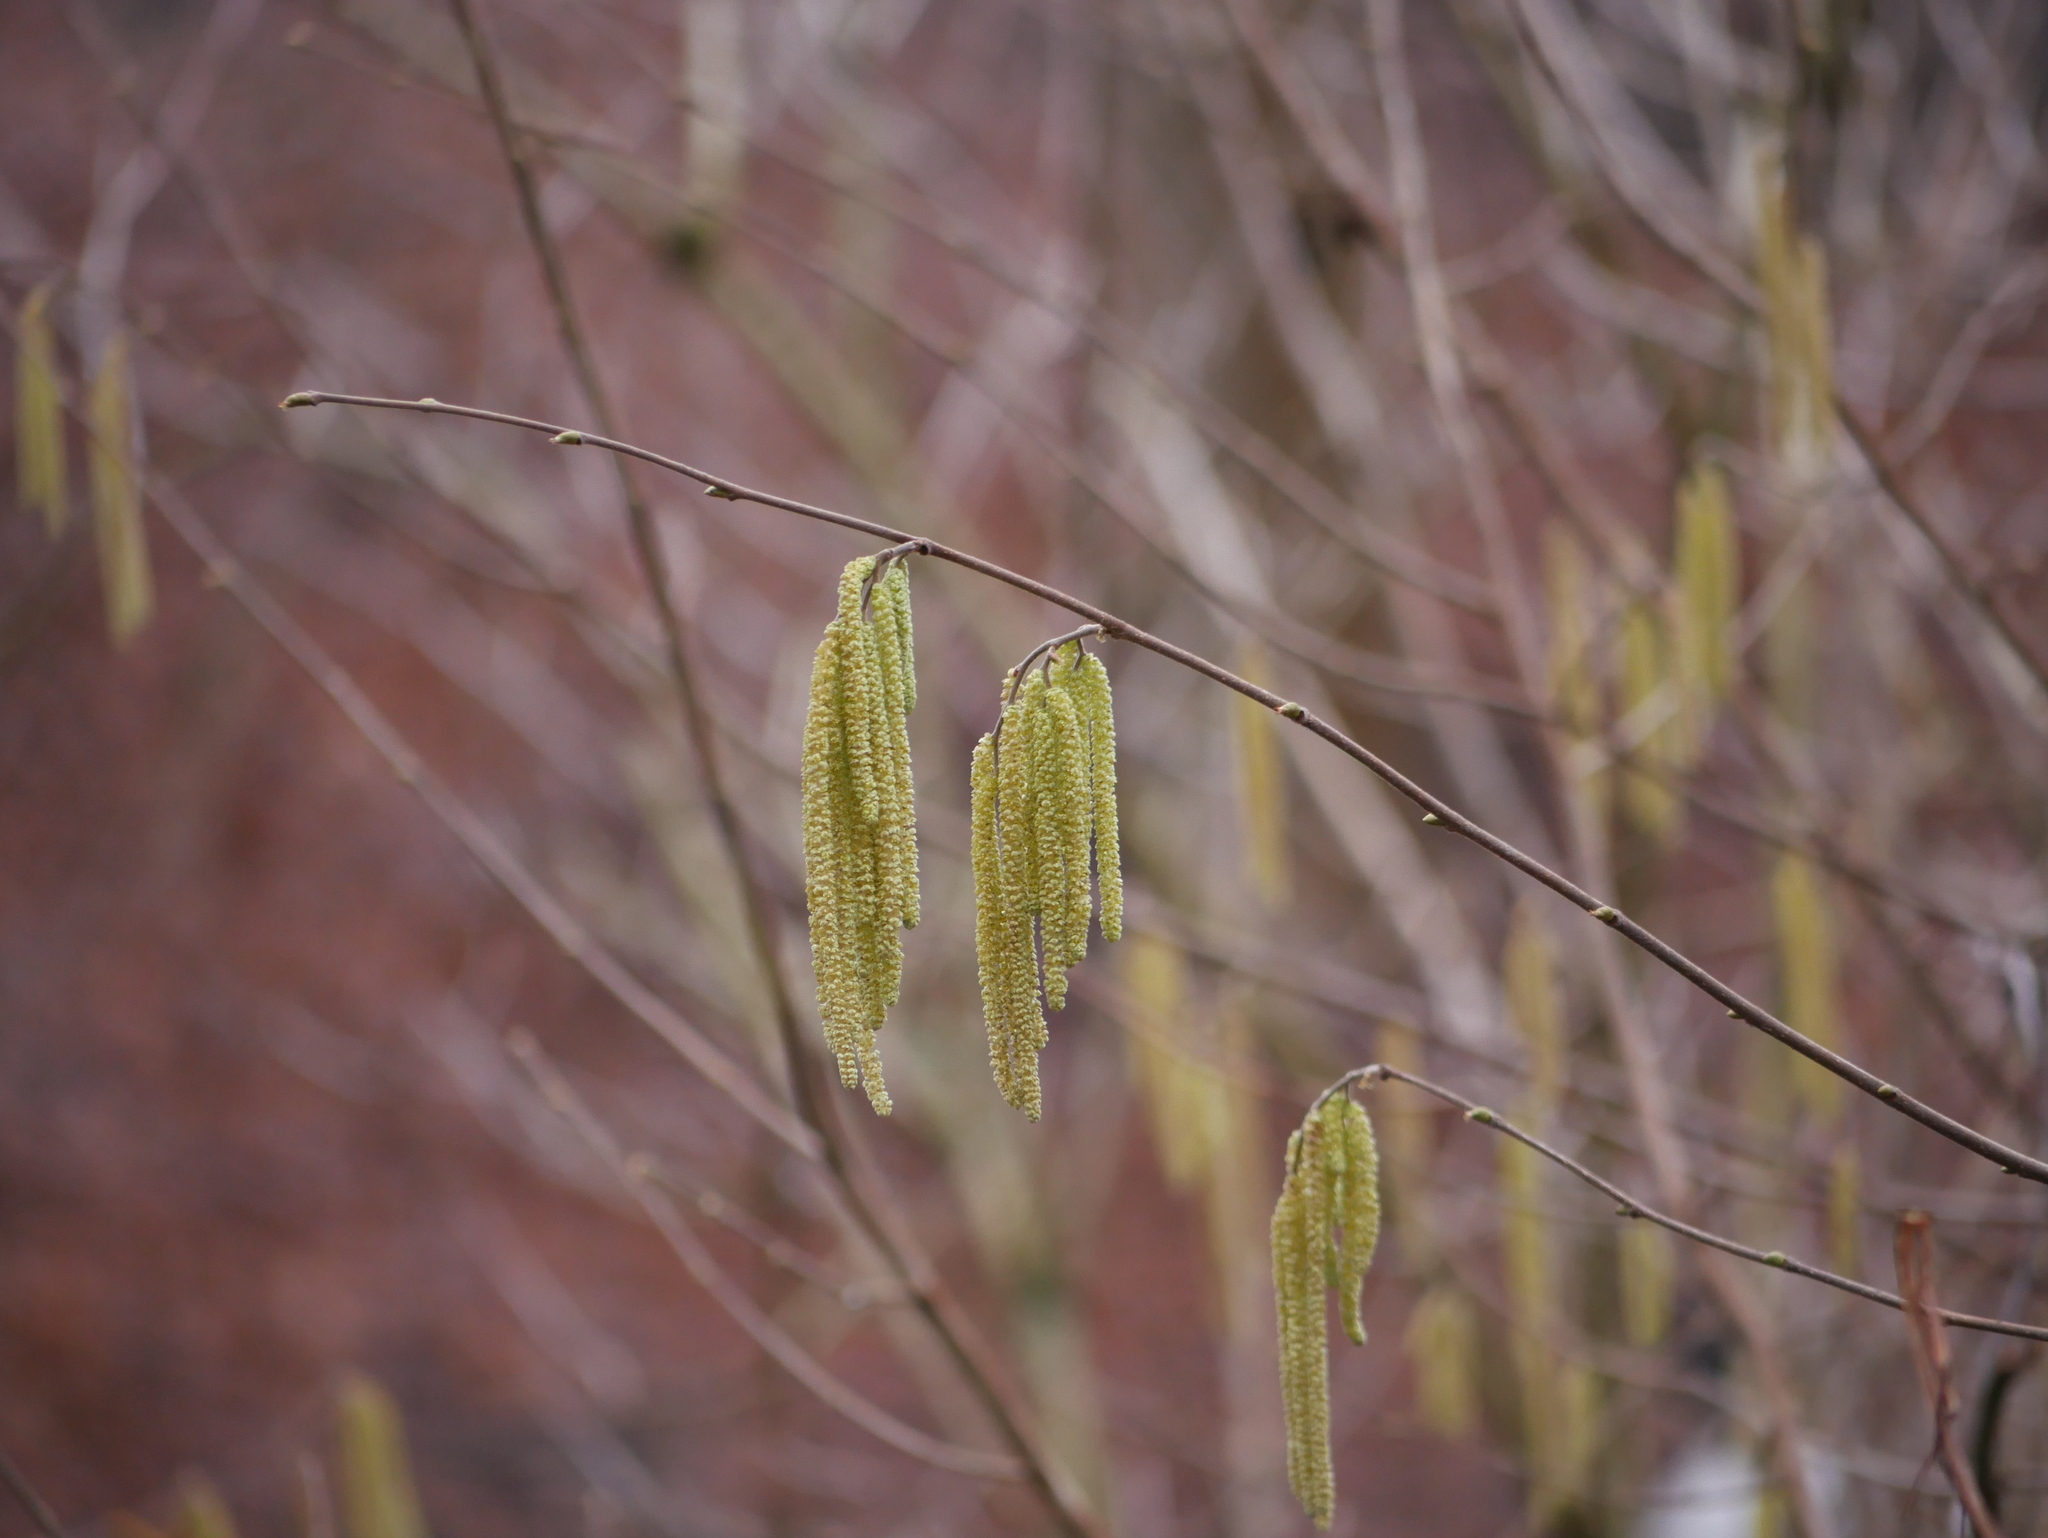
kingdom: Plantae
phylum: Tracheophyta
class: Magnoliopsida
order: Fagales
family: Betulaceae
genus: Corylus
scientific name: Corylus avellana
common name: European hazel
